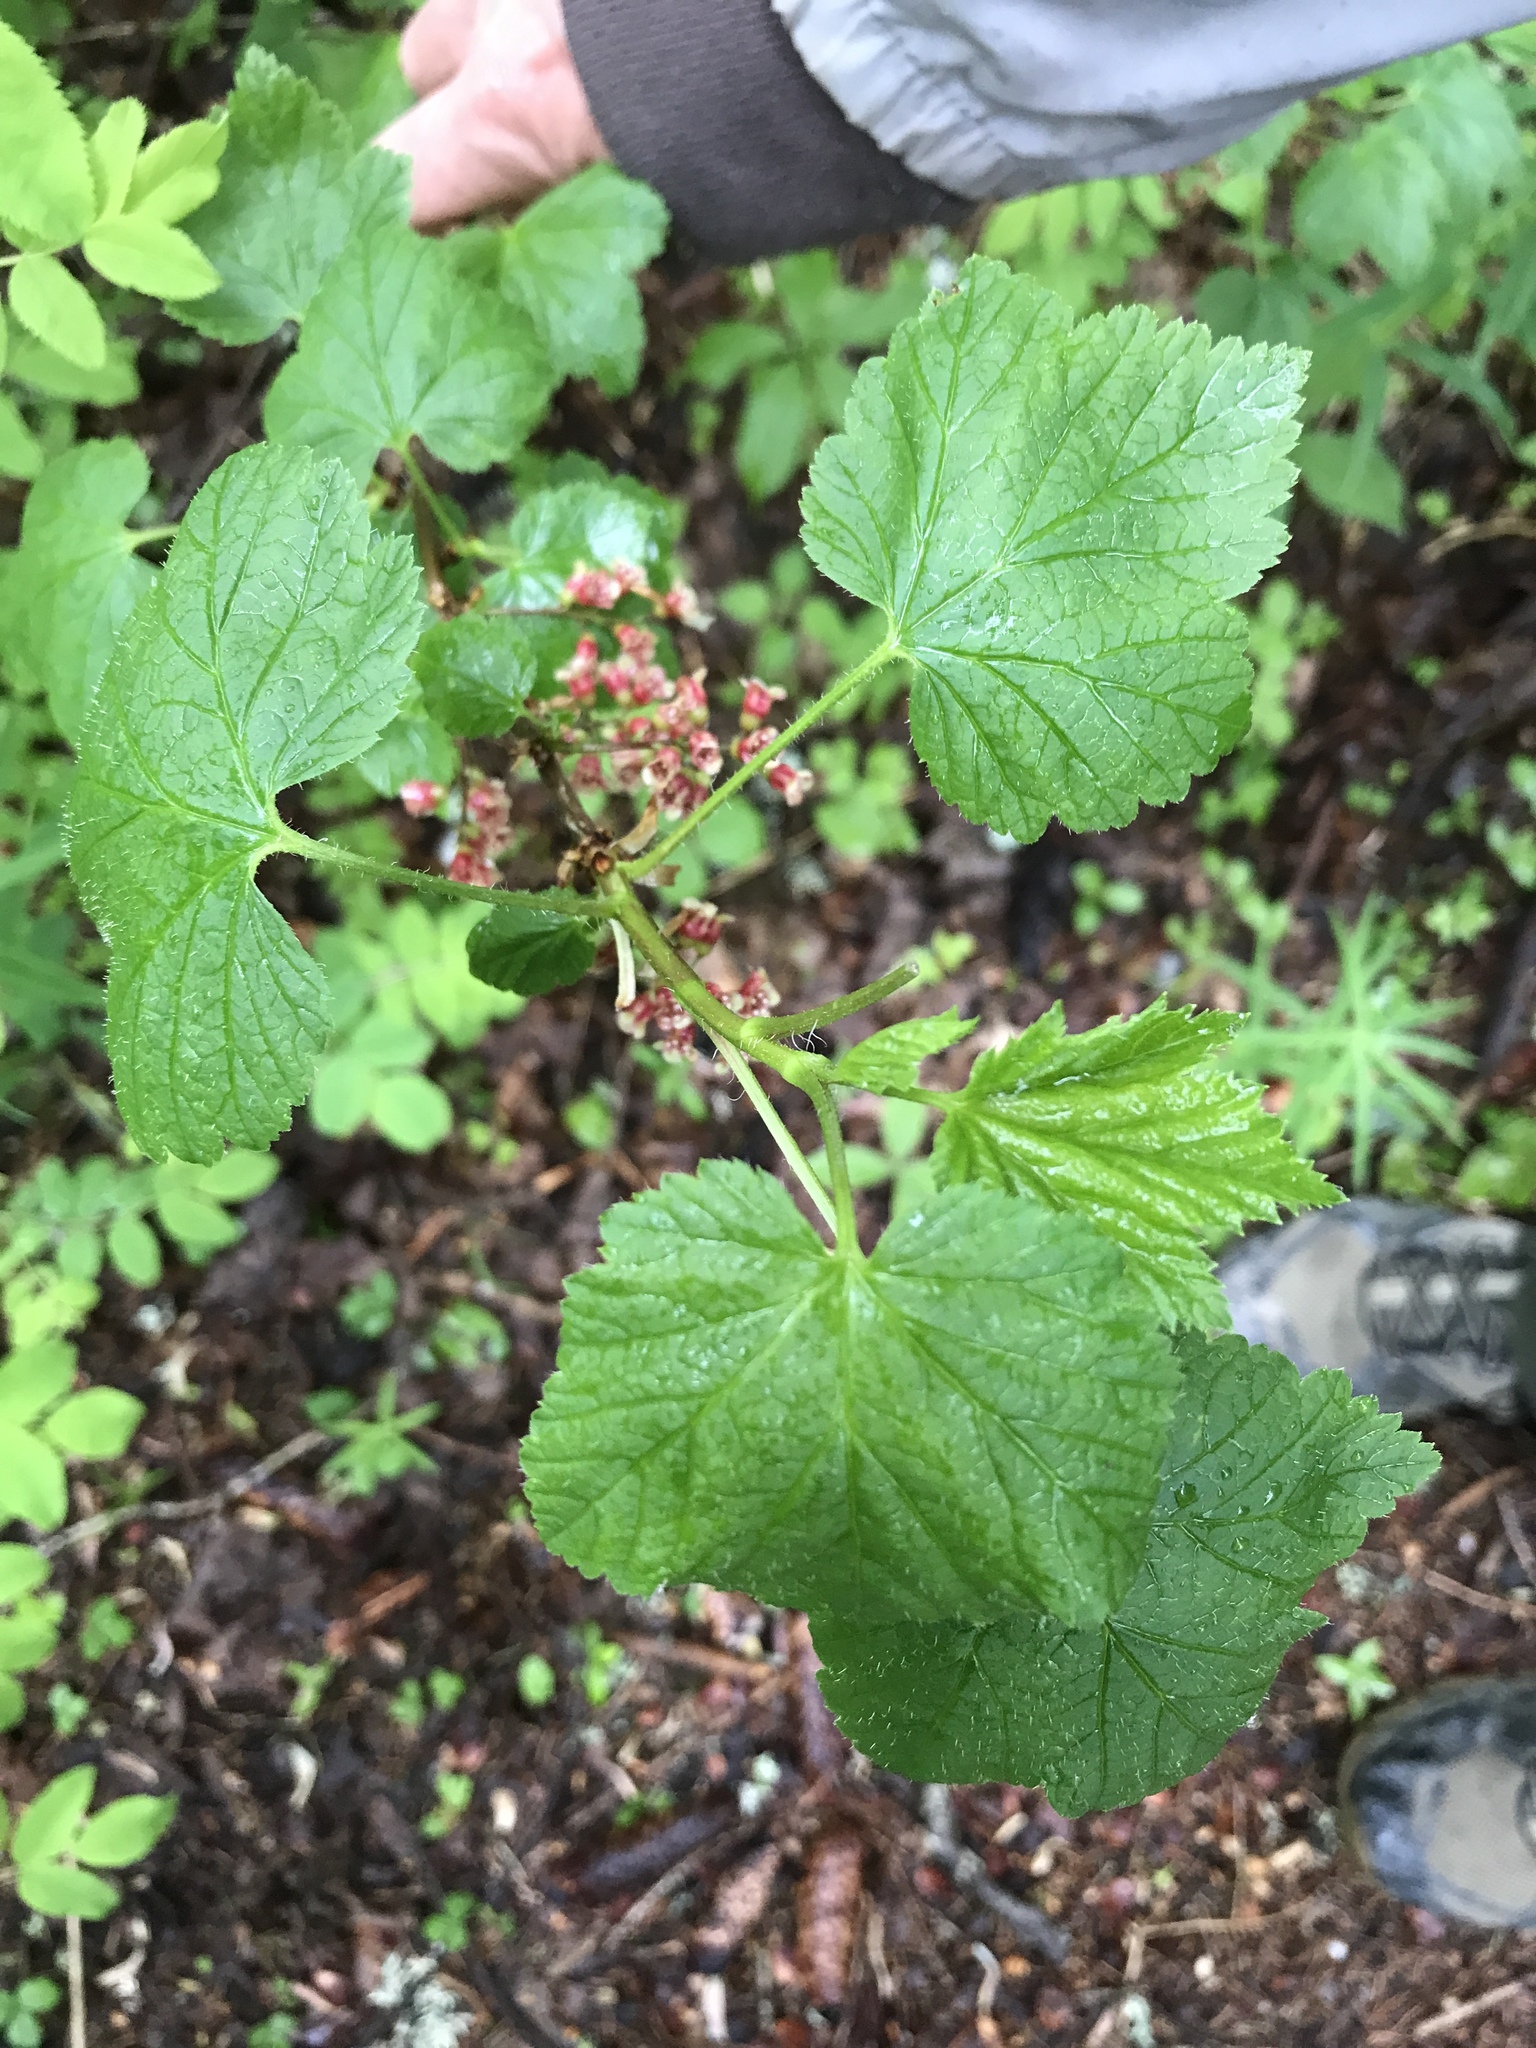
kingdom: Plantae
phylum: Tracheophyta
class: Magnoliopsida
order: Saxifragales
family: Grossulariaceae
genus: Ribes
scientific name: Ribes petraeum
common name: Rock currant
